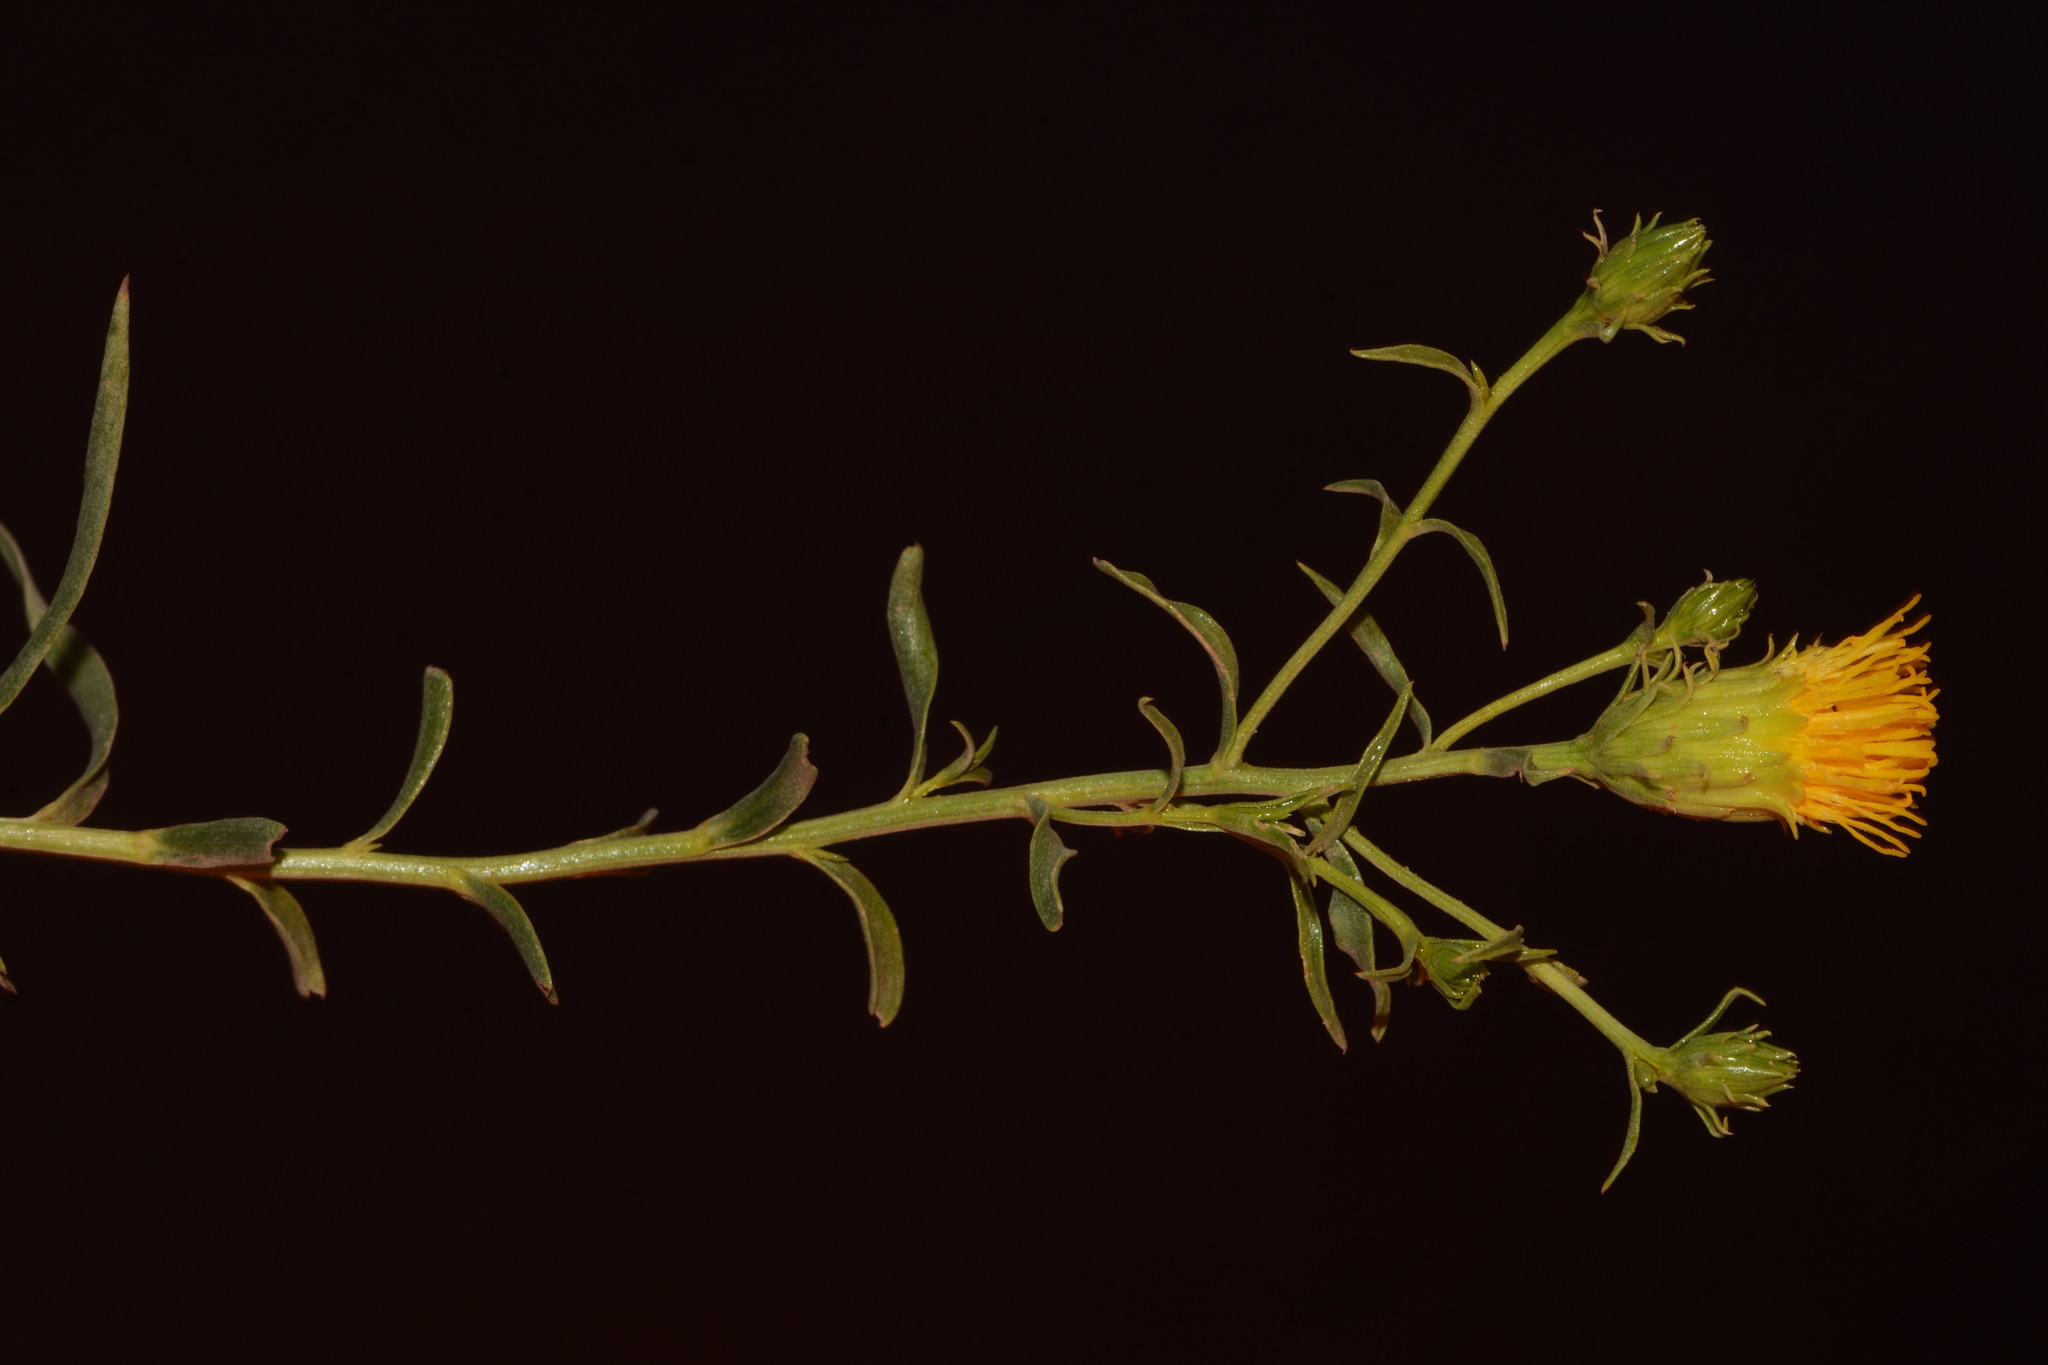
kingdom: Plantae
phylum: Tracheophyta
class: Magnoliopsida
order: Asterales
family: Asteraceae
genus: Chrysothamnus
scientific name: Chrysothamnus stylosus
